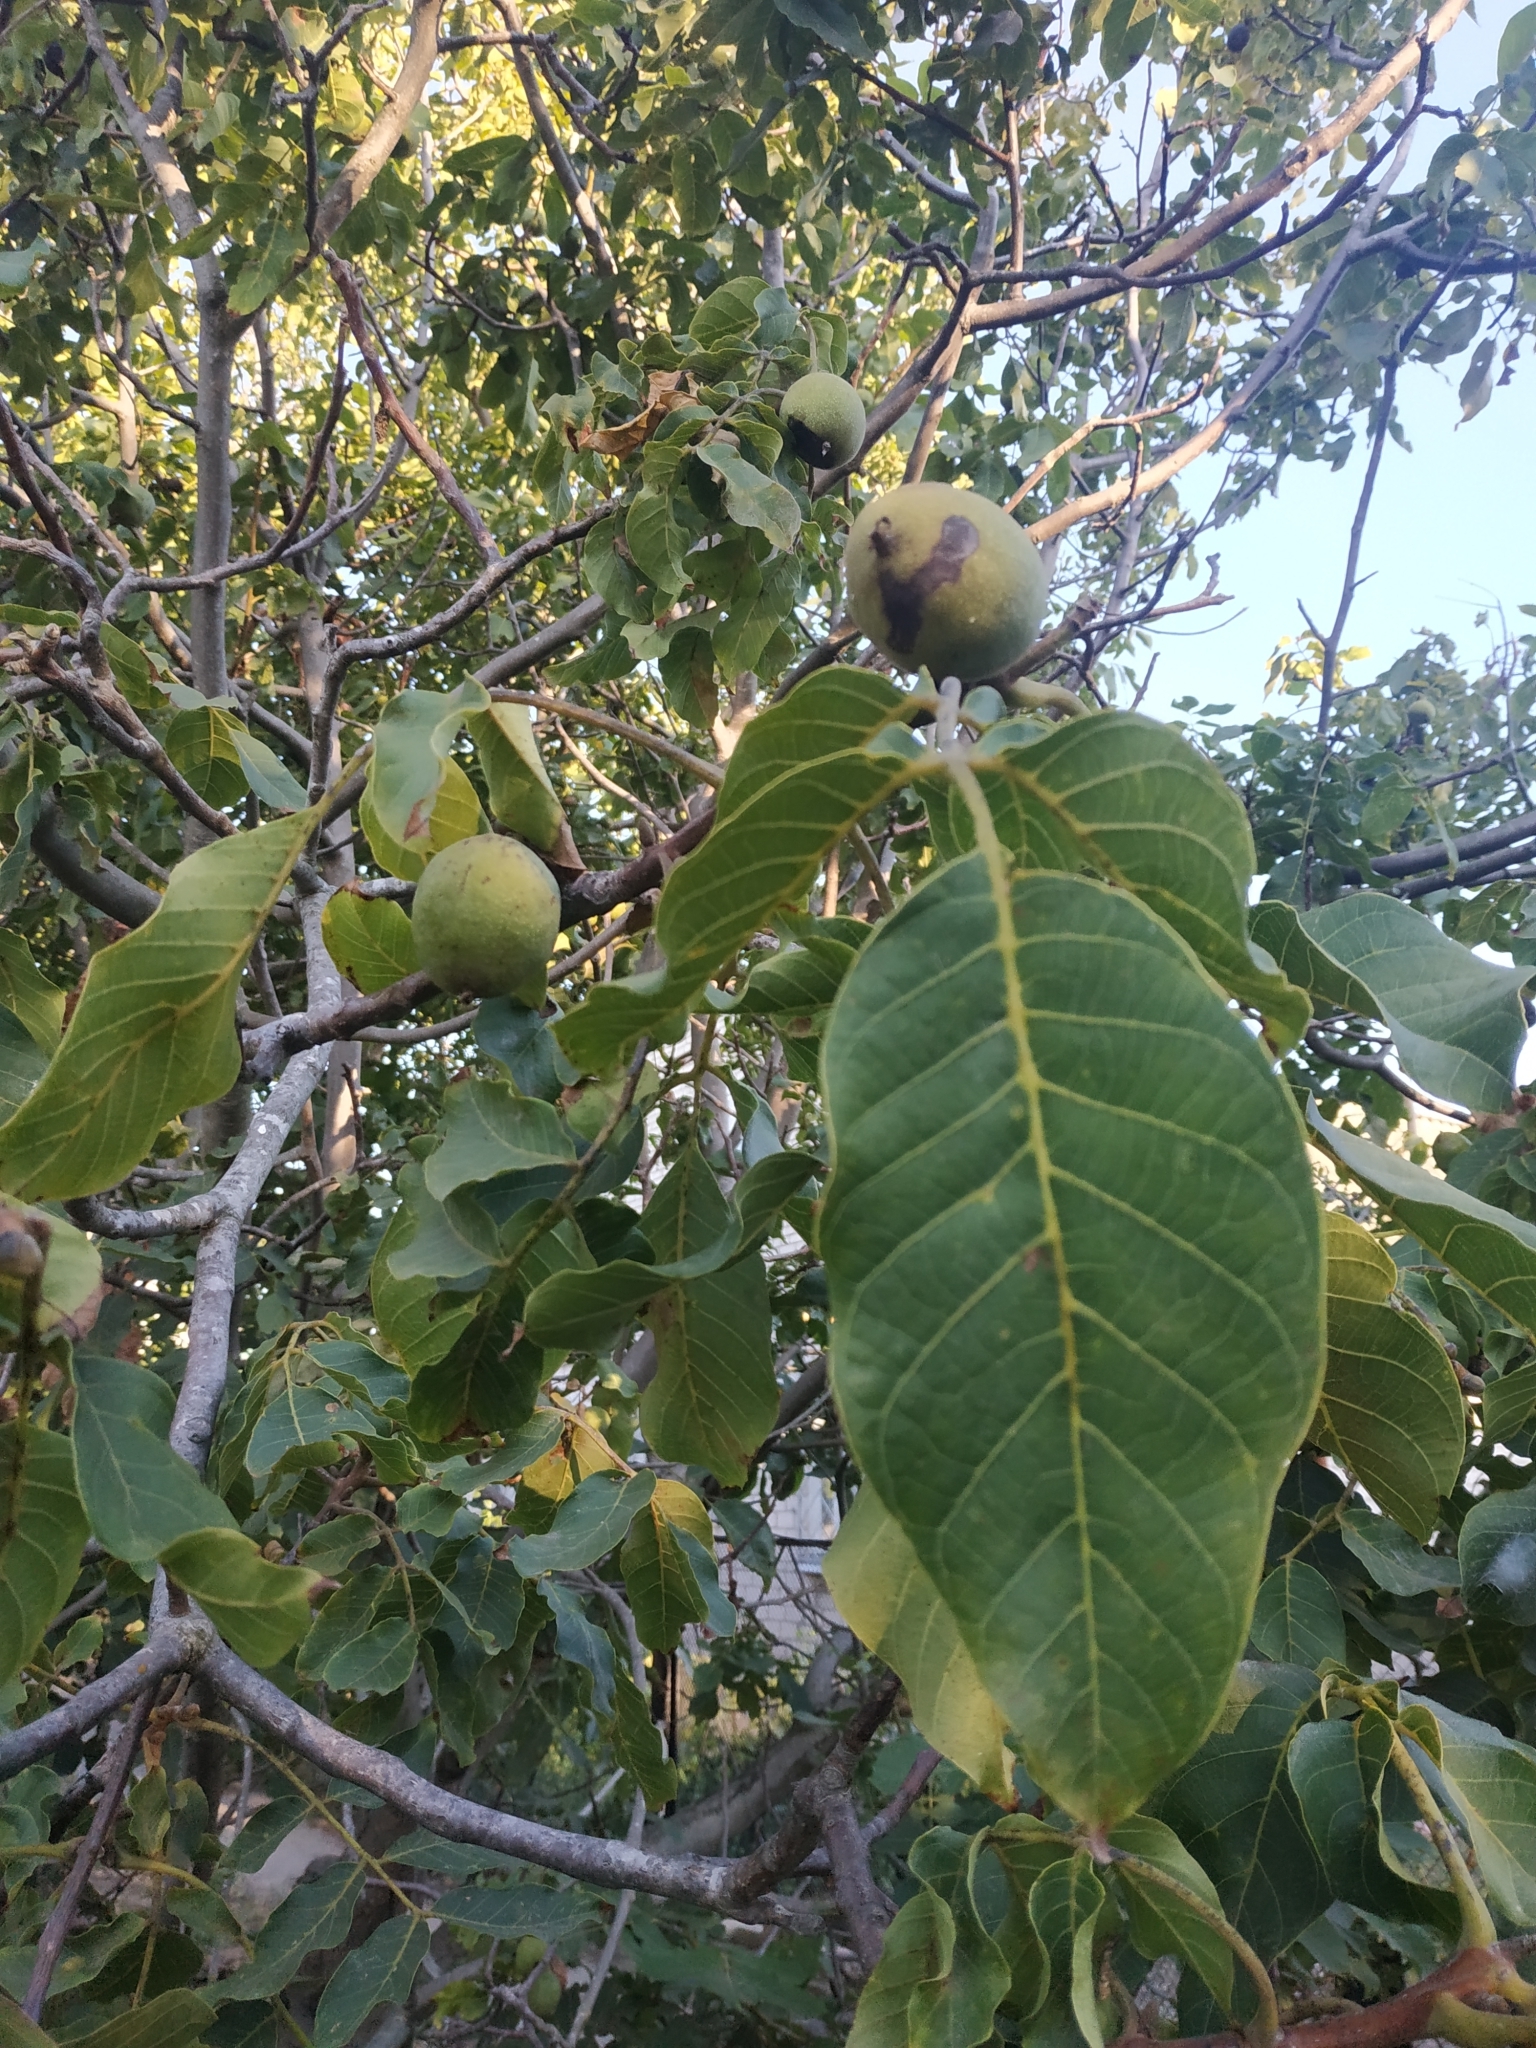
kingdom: Plantae
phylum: Tracheophyta
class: Magnoliopsida
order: Fagales
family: Juglandaceae
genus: Juglans
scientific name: Juglans regia
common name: Walnut
